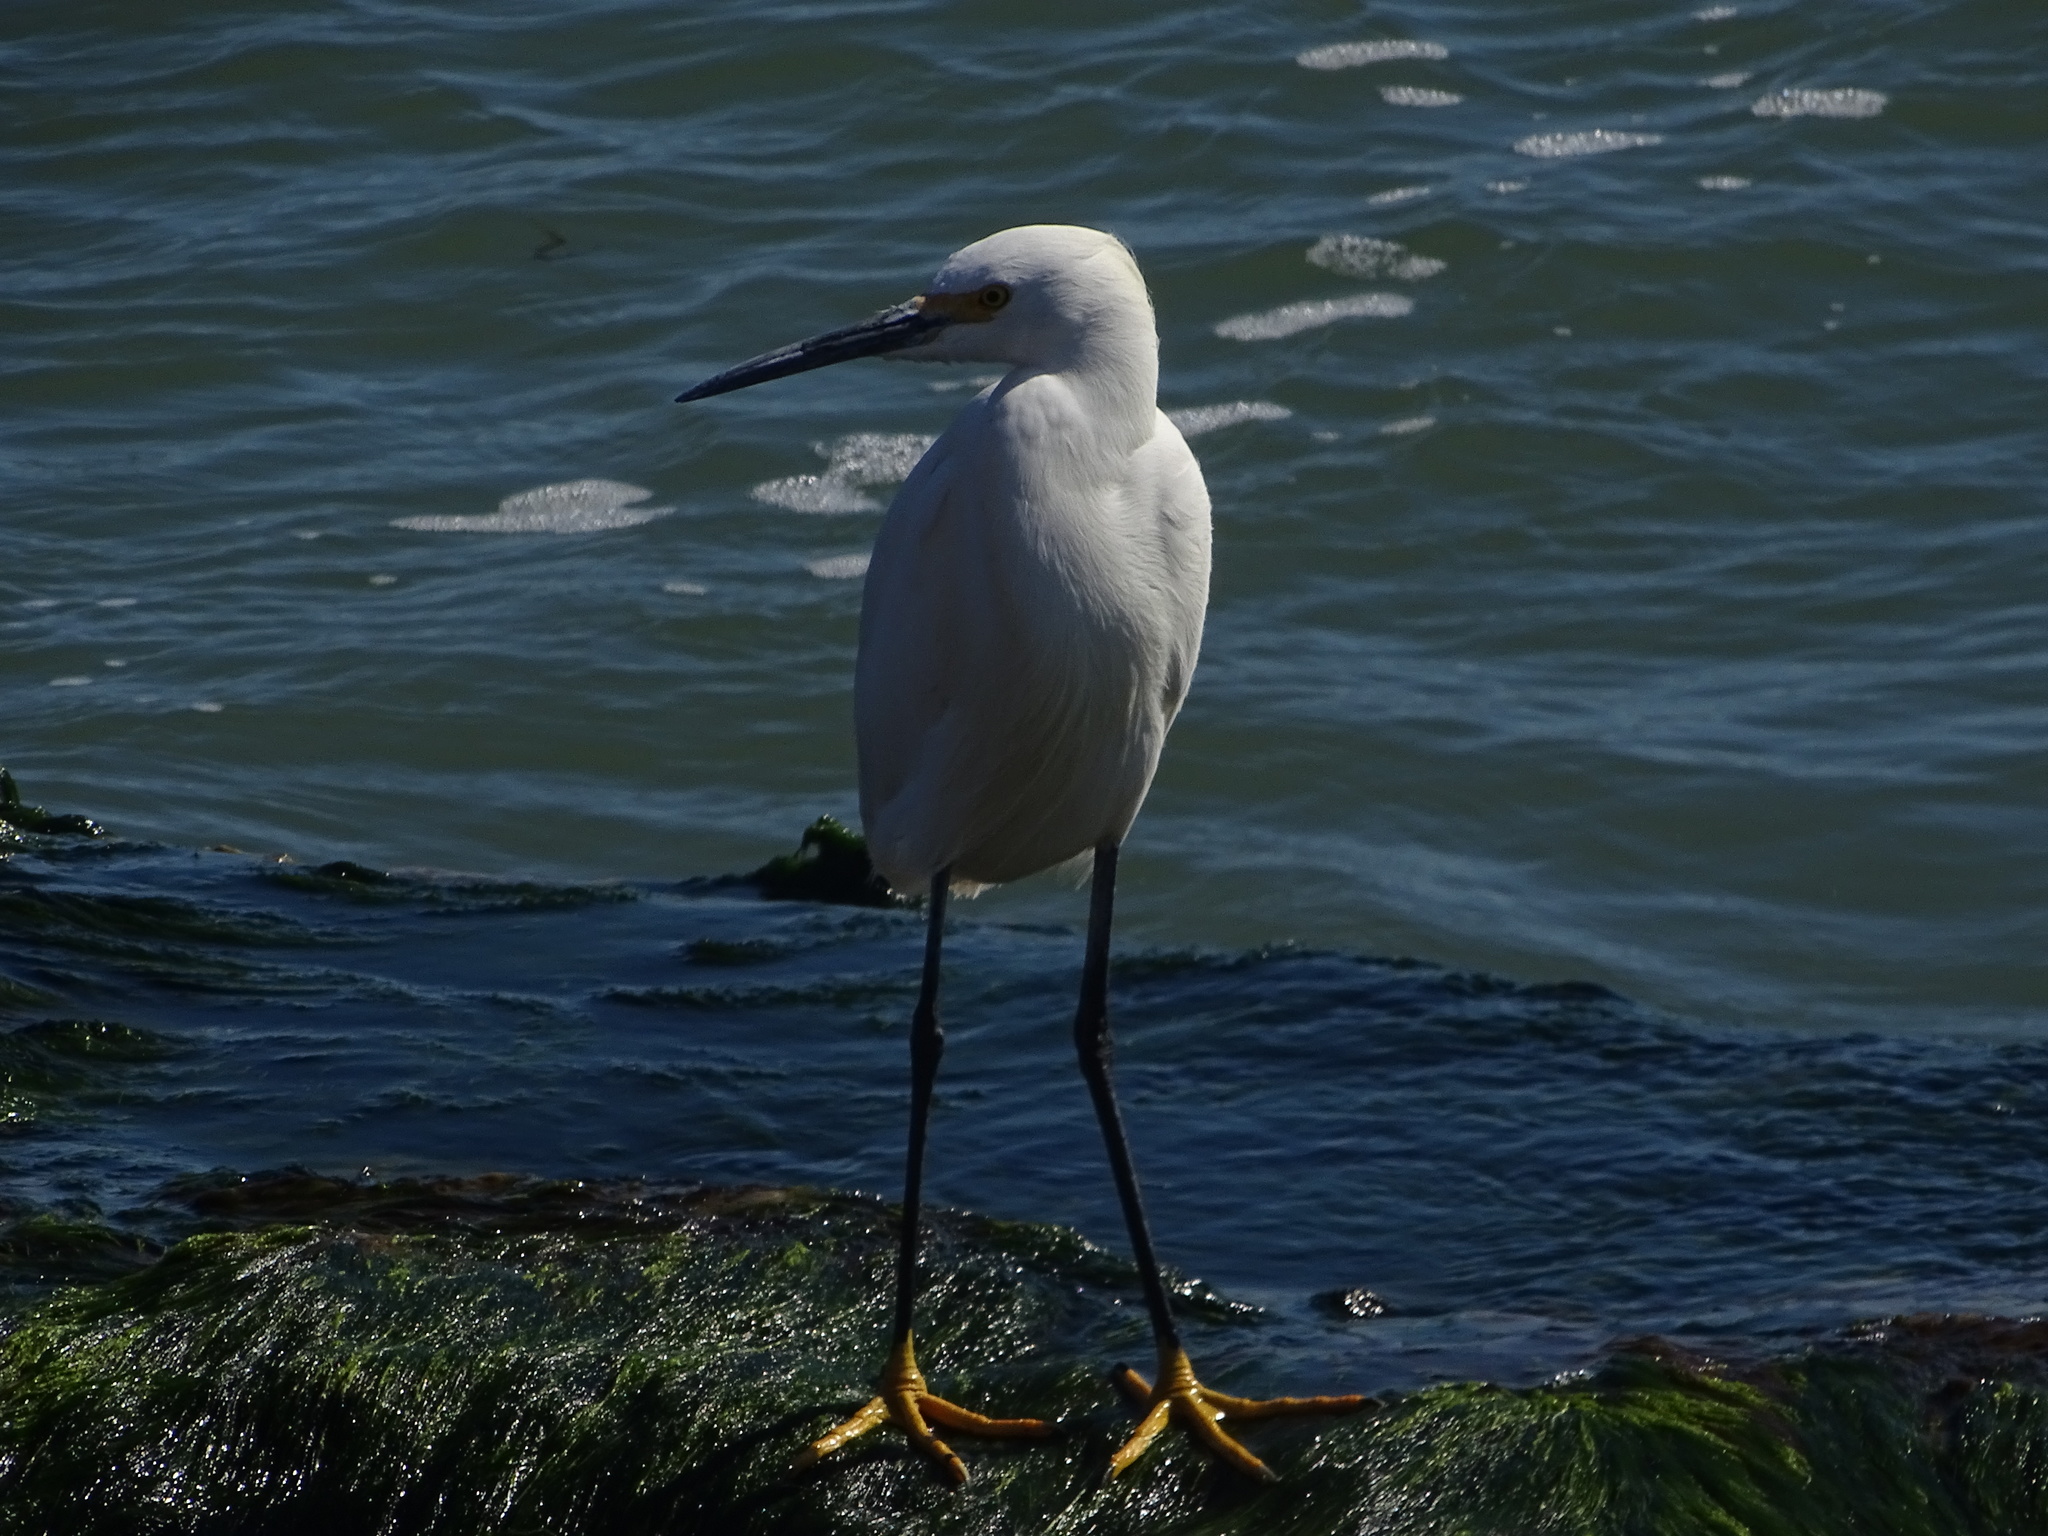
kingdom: Animalia
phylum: Chordata
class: Aves
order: Pelecaniformes
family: Ardeidae
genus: Egretta
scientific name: Egretta thula
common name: Snowy egret
